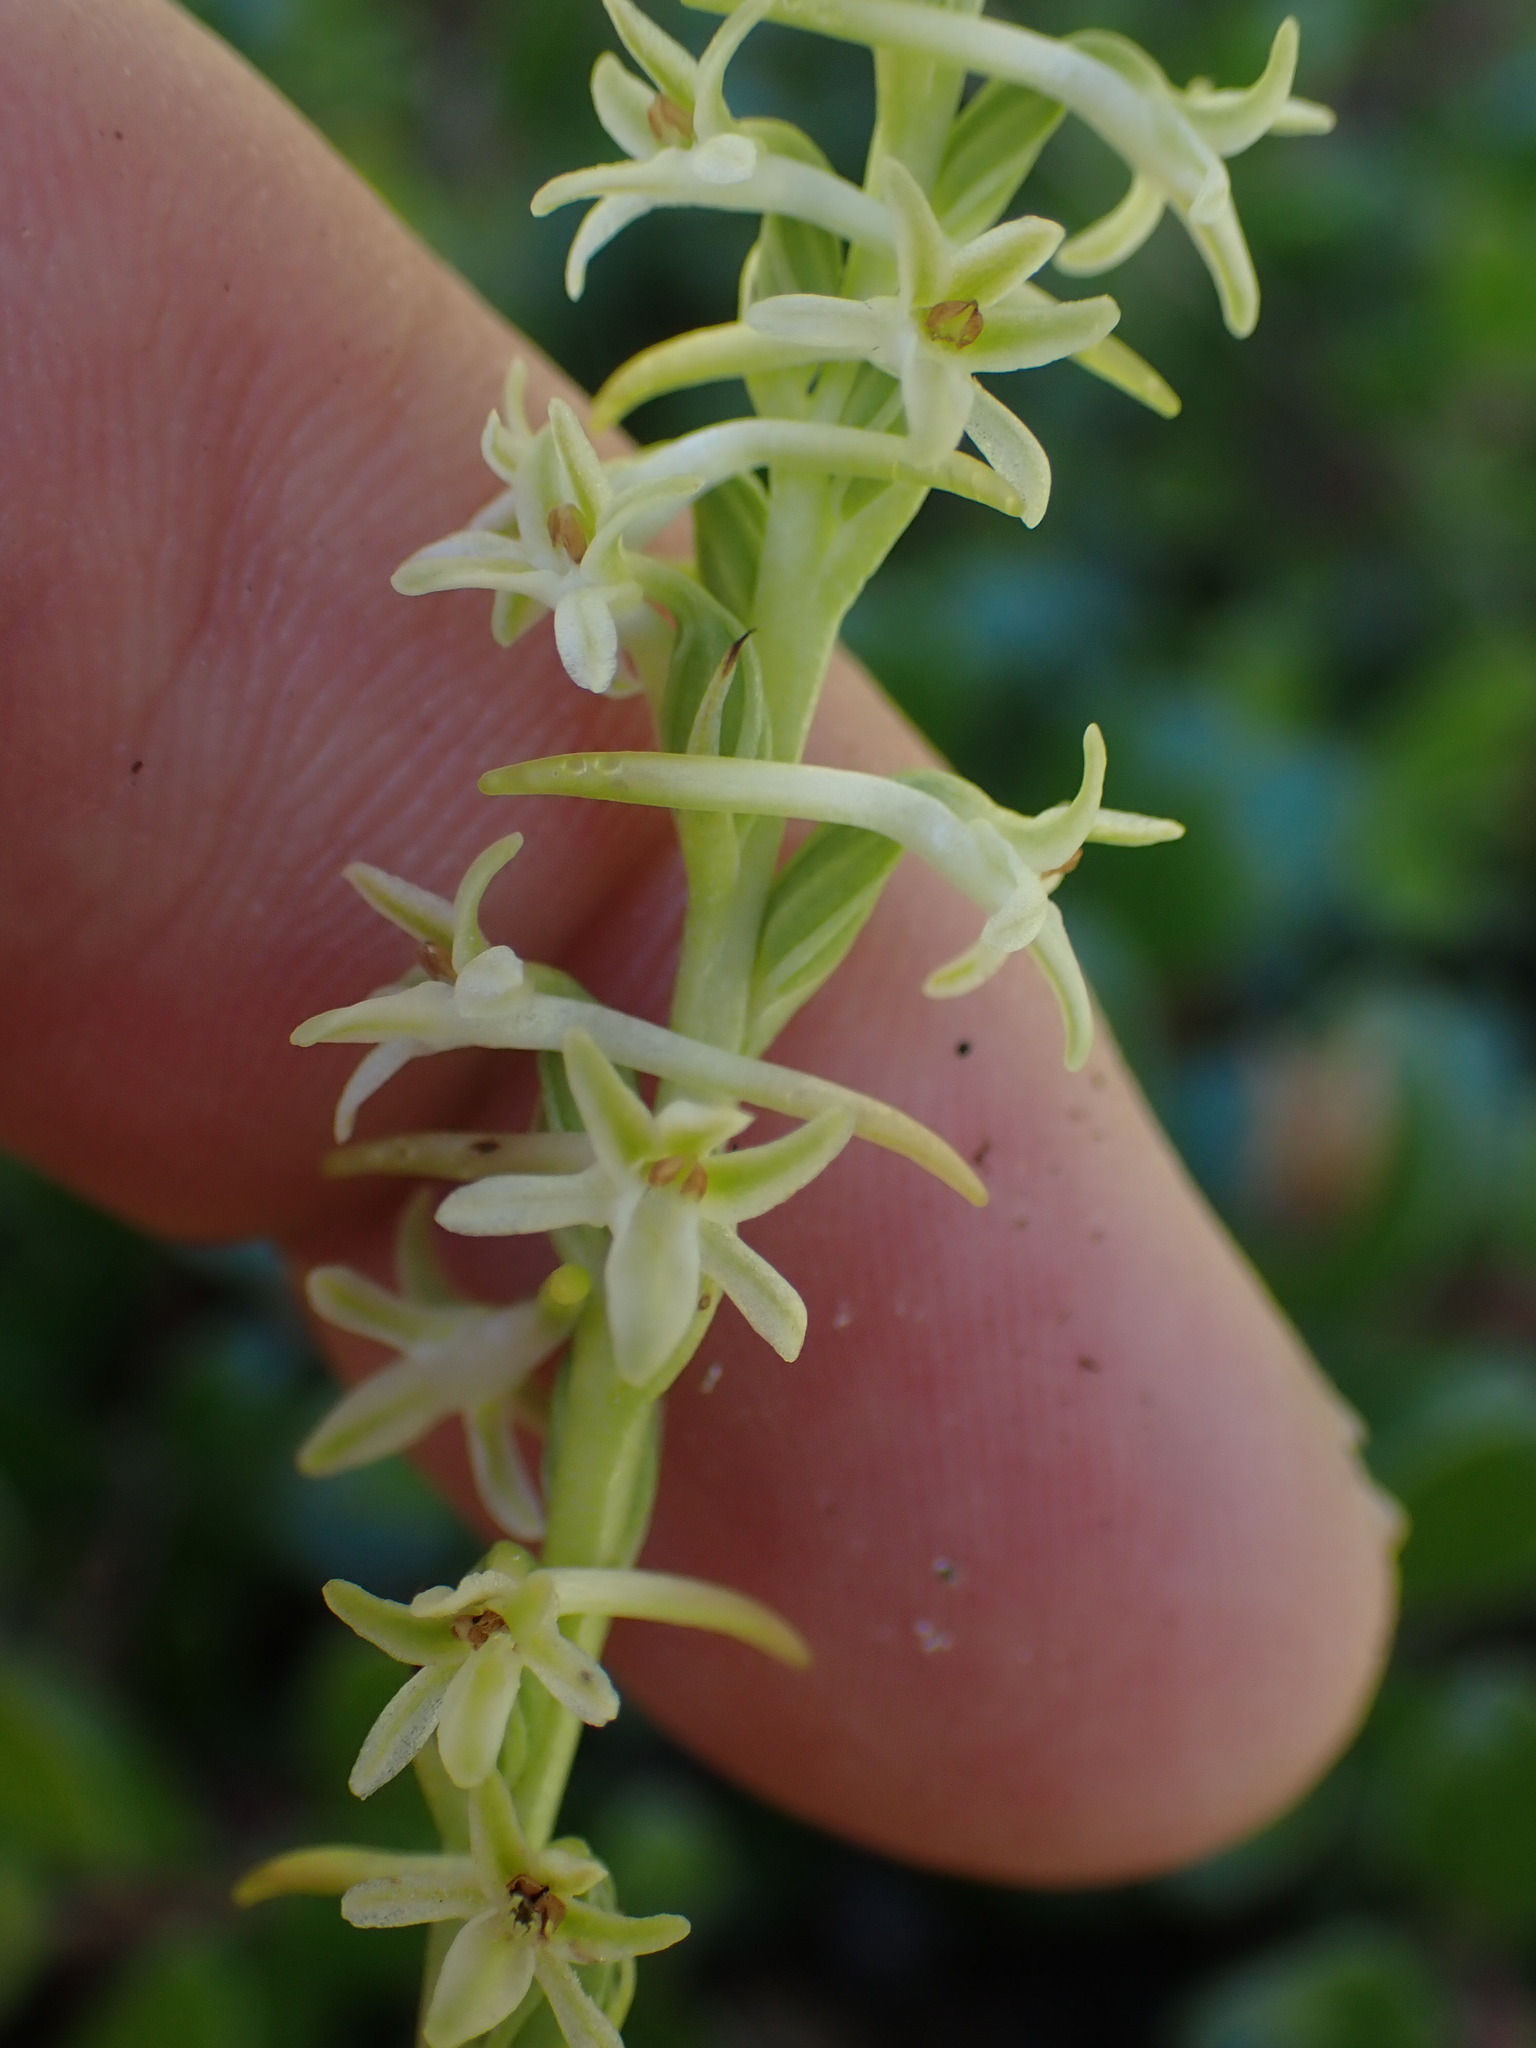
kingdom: Plantae
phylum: Tracheophyta
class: Liliopsida
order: Asparagales
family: Orchidaceae
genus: Platanthera
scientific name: Platanthera transversa
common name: Royal rein orchid
